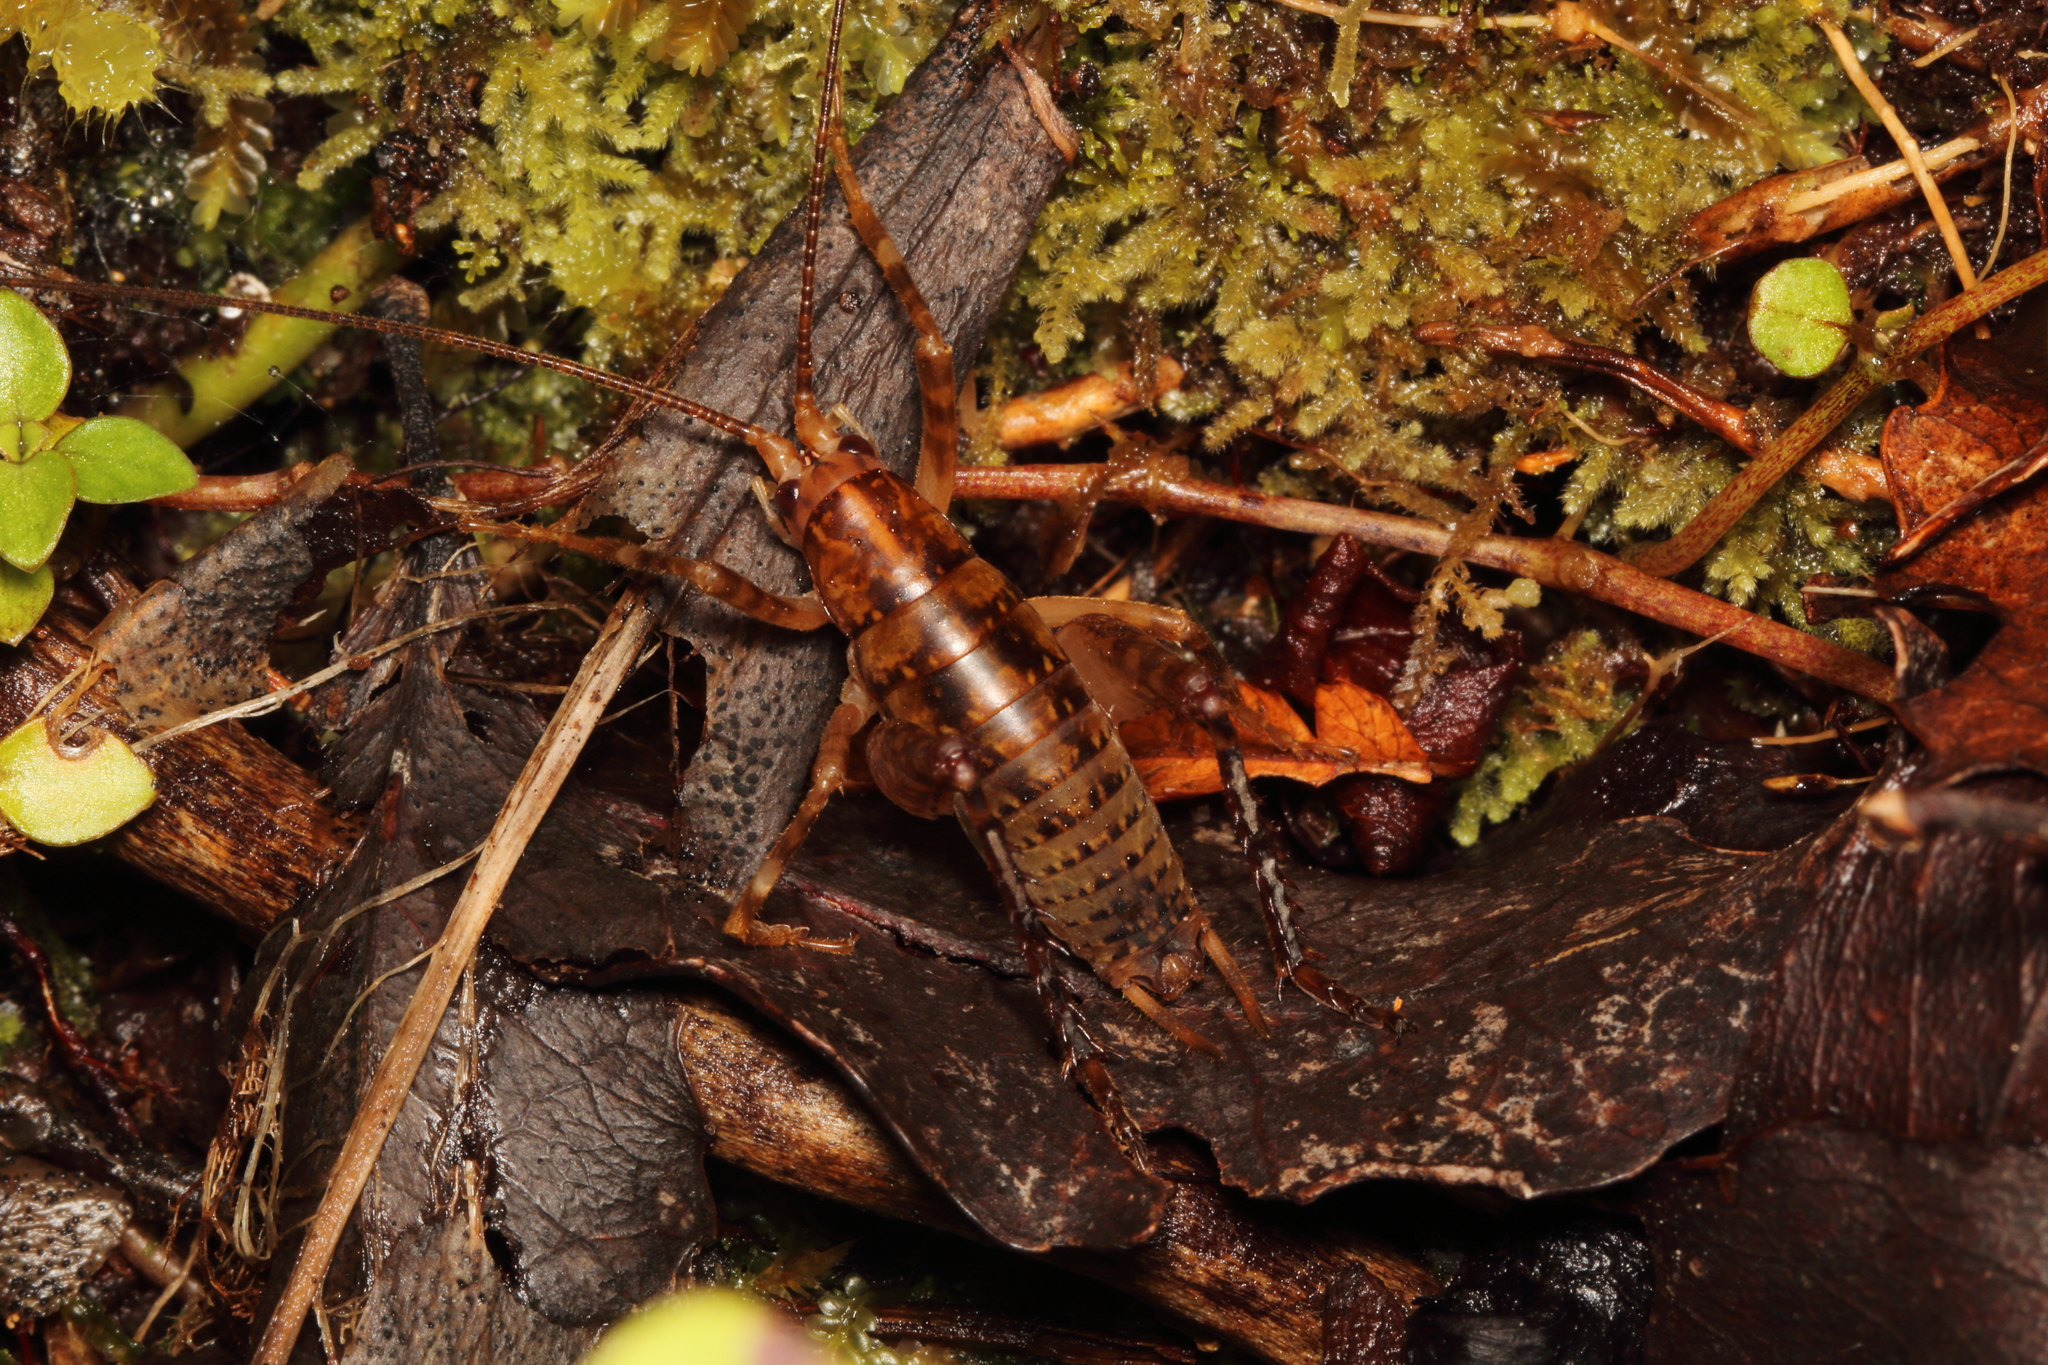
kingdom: Animalia
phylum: Arthropoda
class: Insecta
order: Orthoptera
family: Rhaphidophoridae
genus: Talitropsis
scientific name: Talitropsis sedilloti
